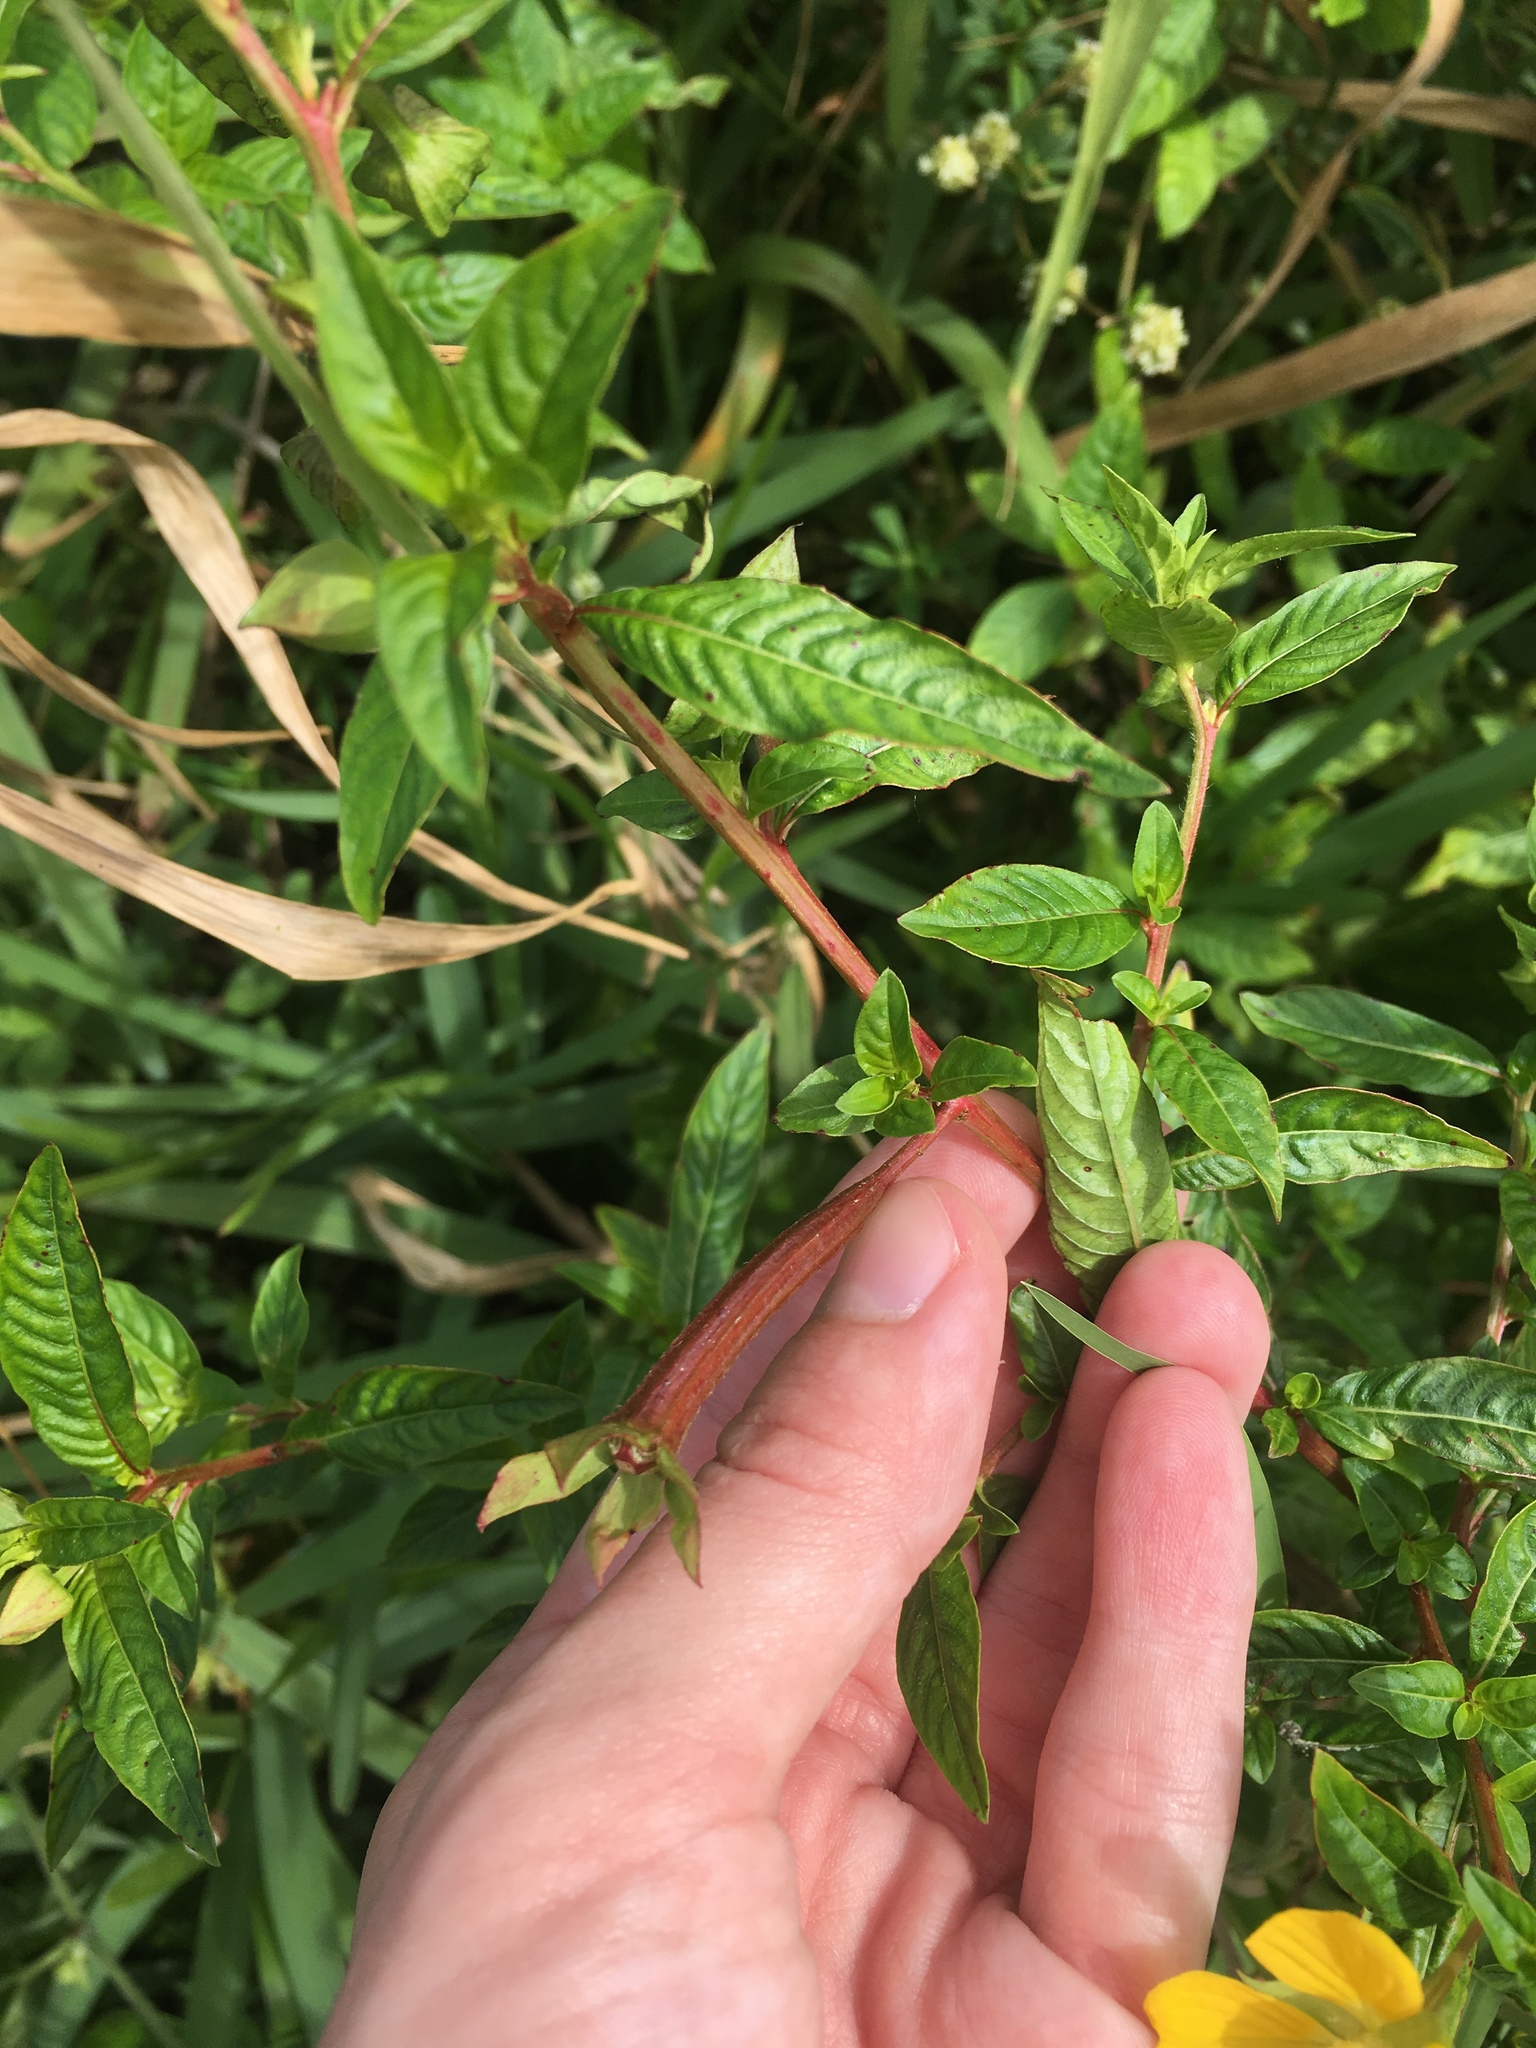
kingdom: Plantae
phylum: Tracheophyta
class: Magnoliopsida
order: Myrtales
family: Onagraceae
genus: Ludwigia
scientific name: Ludwigia octovalvis
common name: Water-primrose
